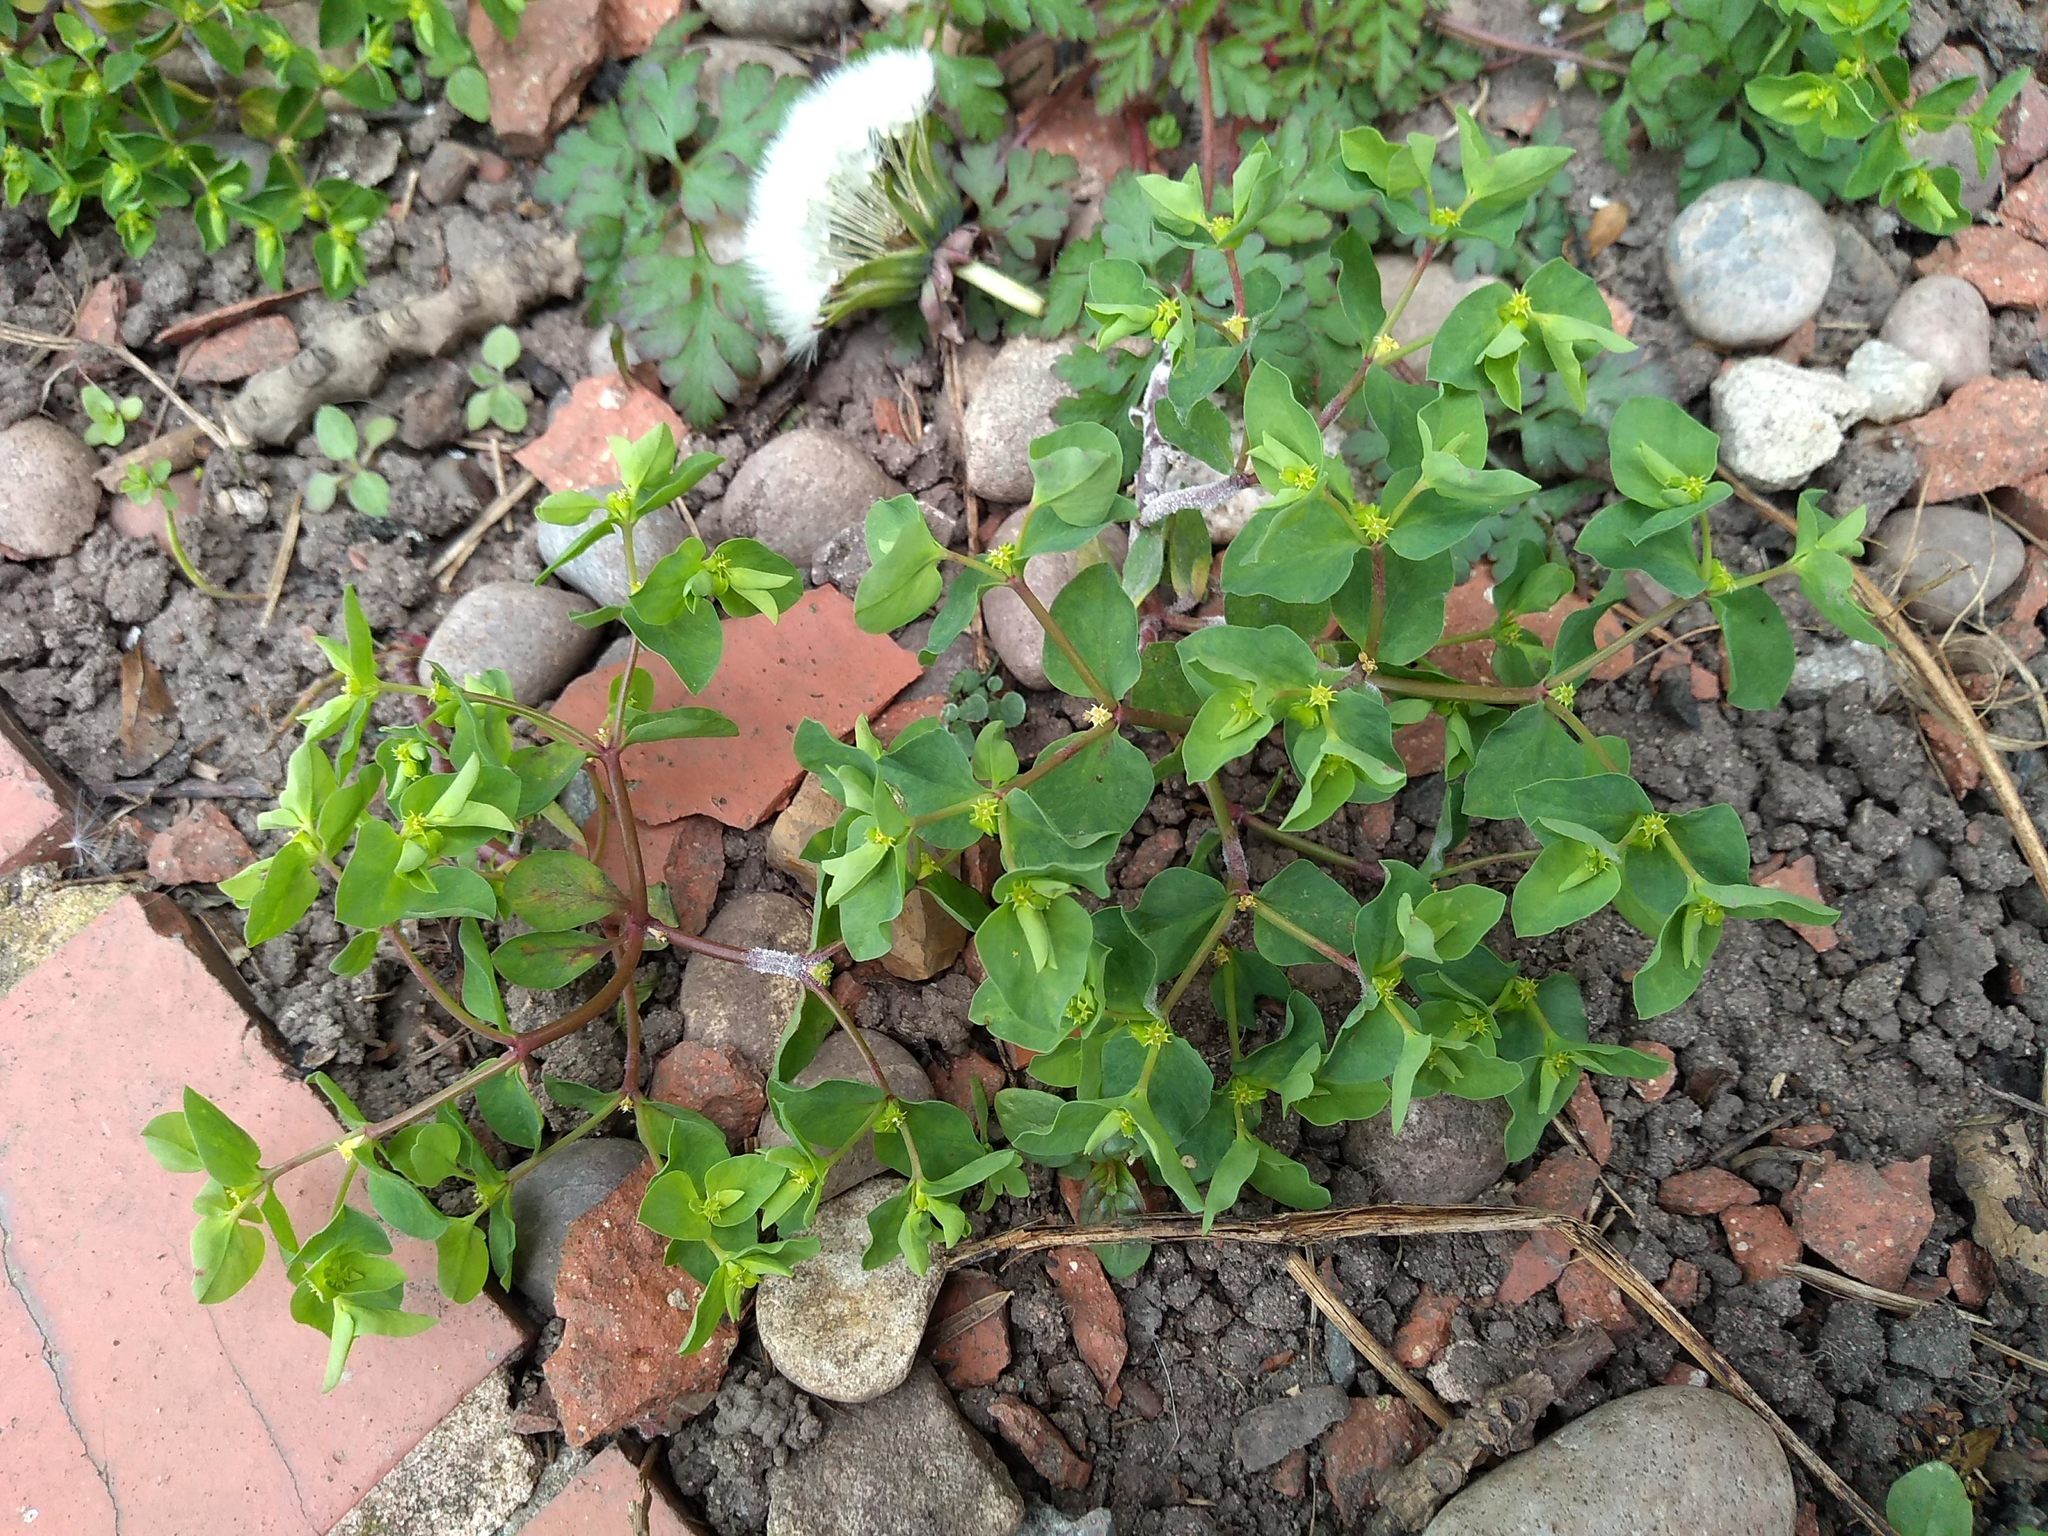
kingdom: Plantae
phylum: Tracheophyta
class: Magnoliopsida
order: Malpighiales
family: Euphorbiaceae
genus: Euphorbia
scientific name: Euphorbia peplus
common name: Petty spurge
